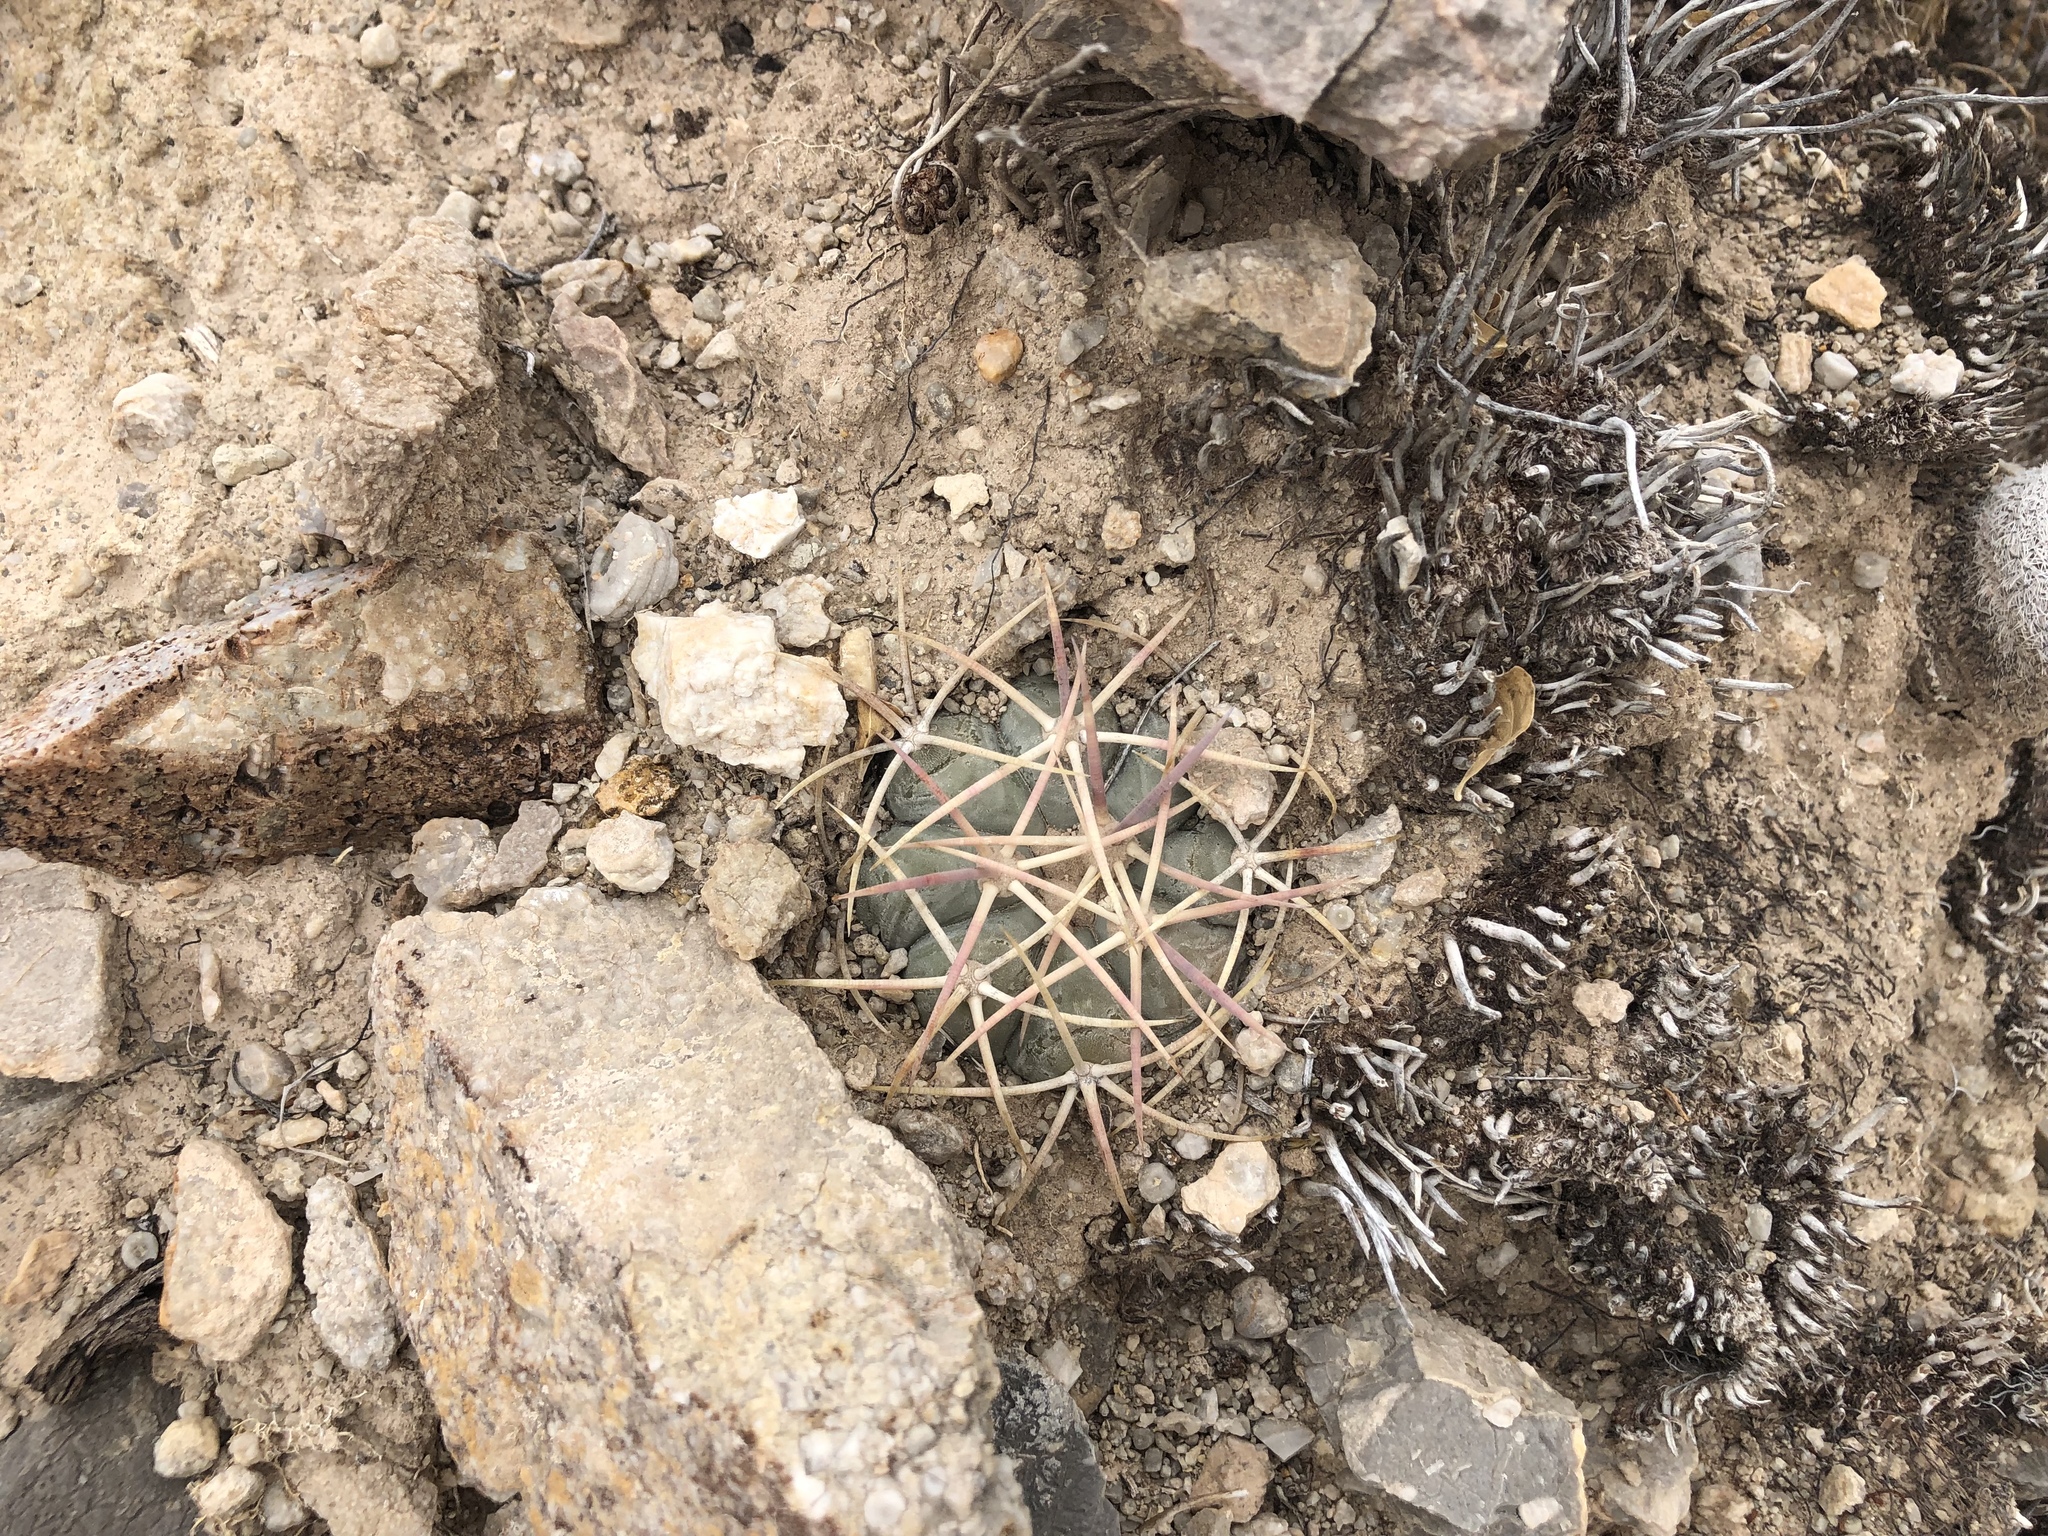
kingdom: Plantae
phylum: Tracheophyta
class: Magnoliopsida
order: Caryophyllales
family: Cactaceae
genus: Echinocactus
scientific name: Echinocactus horizonthalonius
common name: Devilshead
